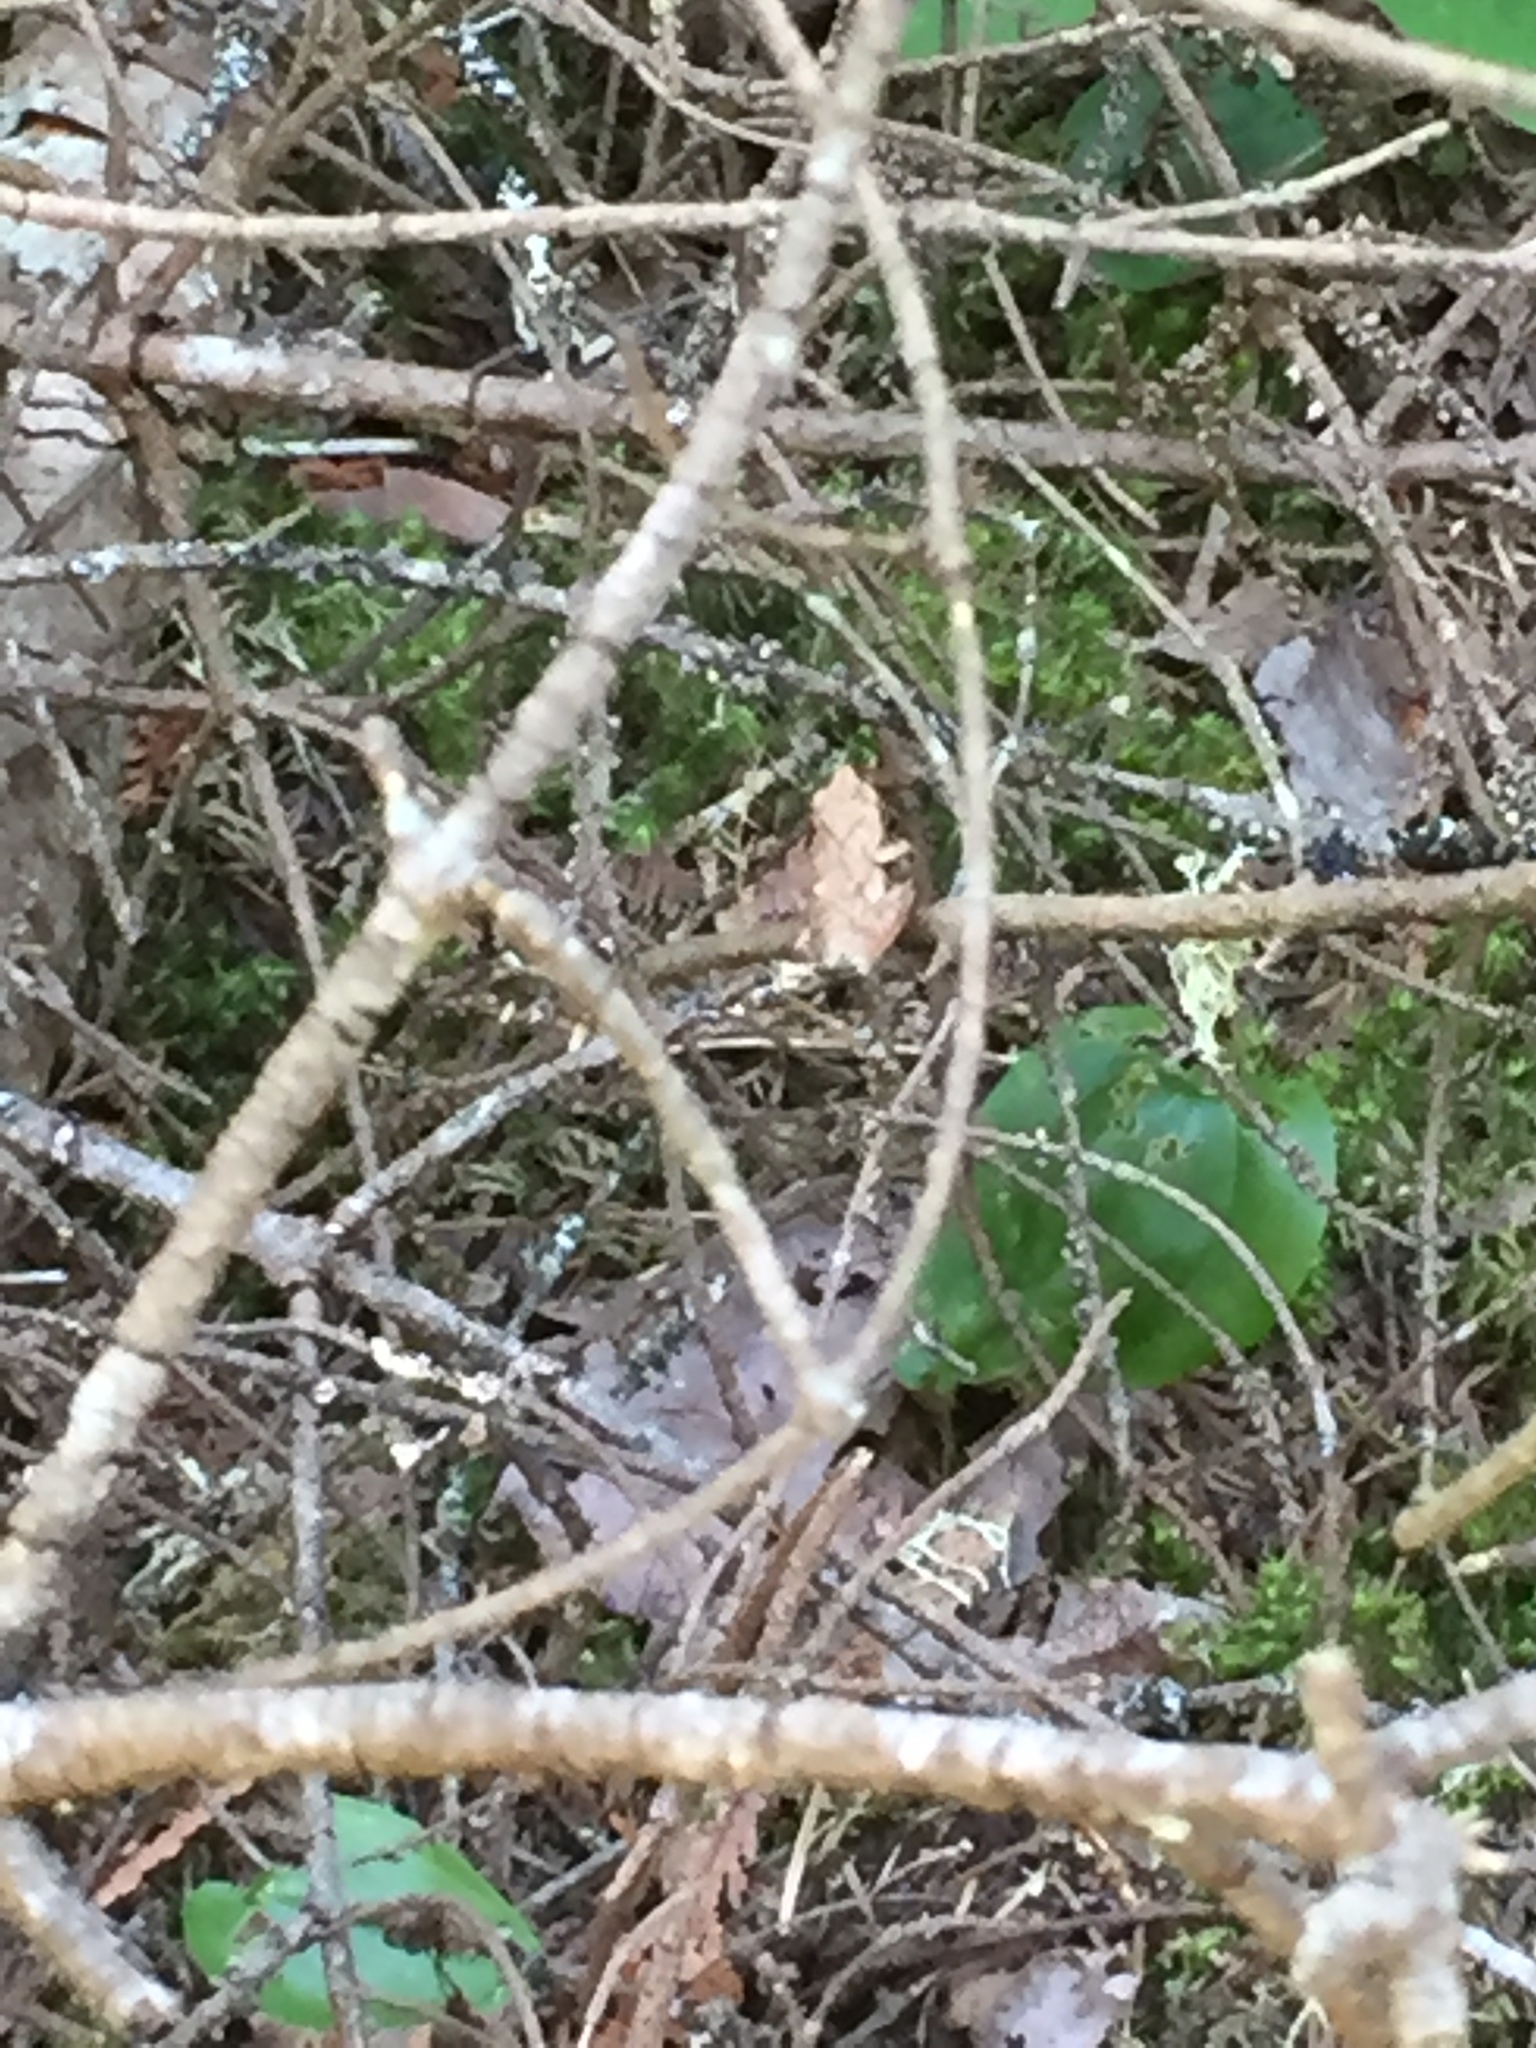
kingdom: Animalia
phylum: Chordata
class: Amphibia
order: Anura
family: Hylidae
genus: Pseudacris
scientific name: Pseudacris crucifer
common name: Spring peeper
